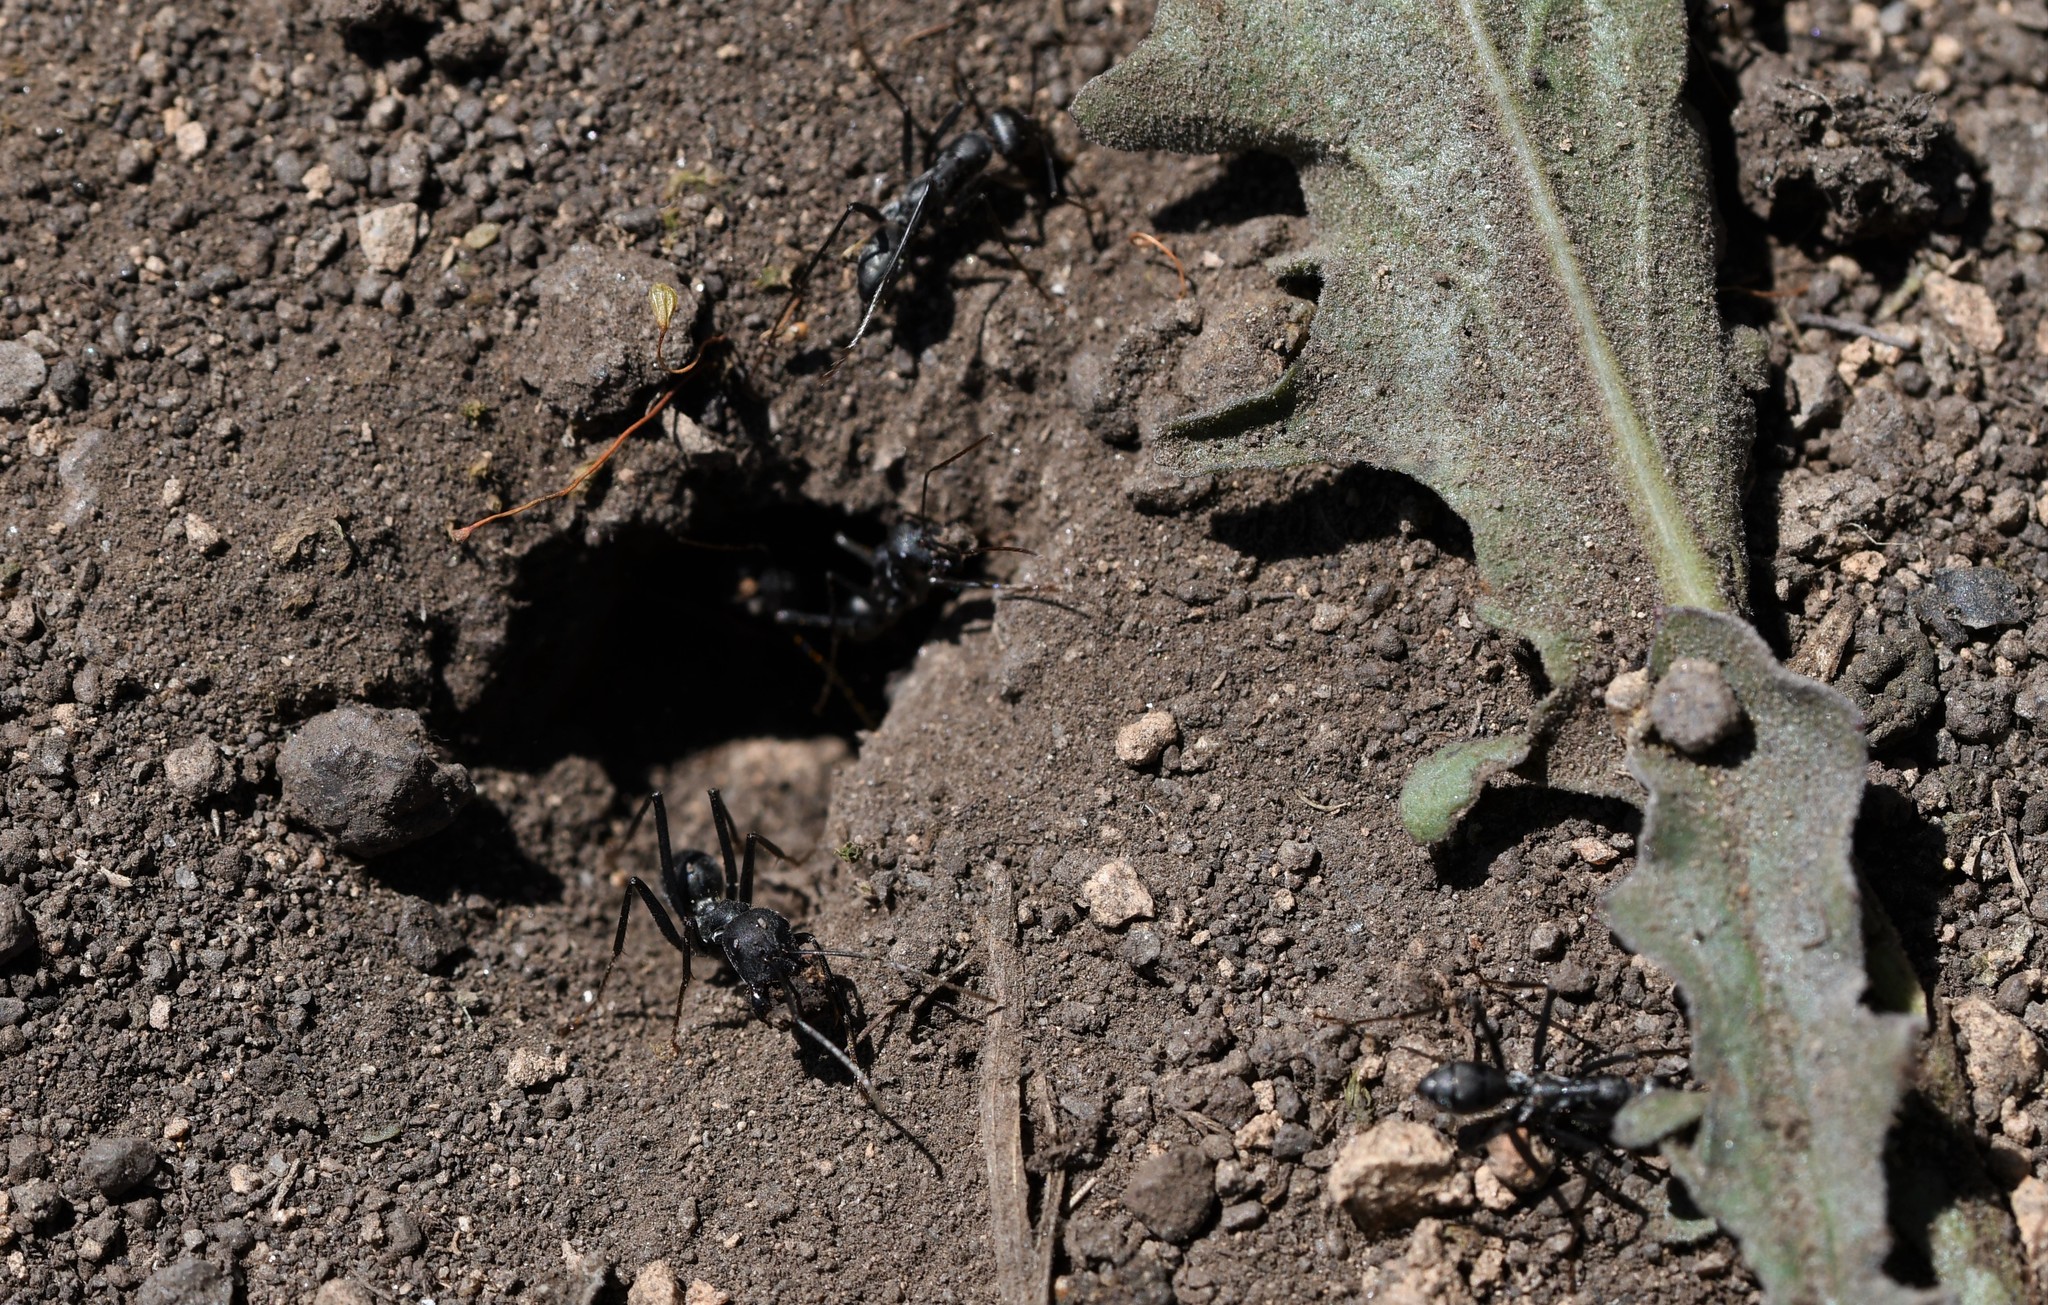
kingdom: Animalia
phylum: Arthropoda
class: Insecta
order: Hymenoptera
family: Formicidae
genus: Cataglyphis
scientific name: Cataglyphis hispanicus
